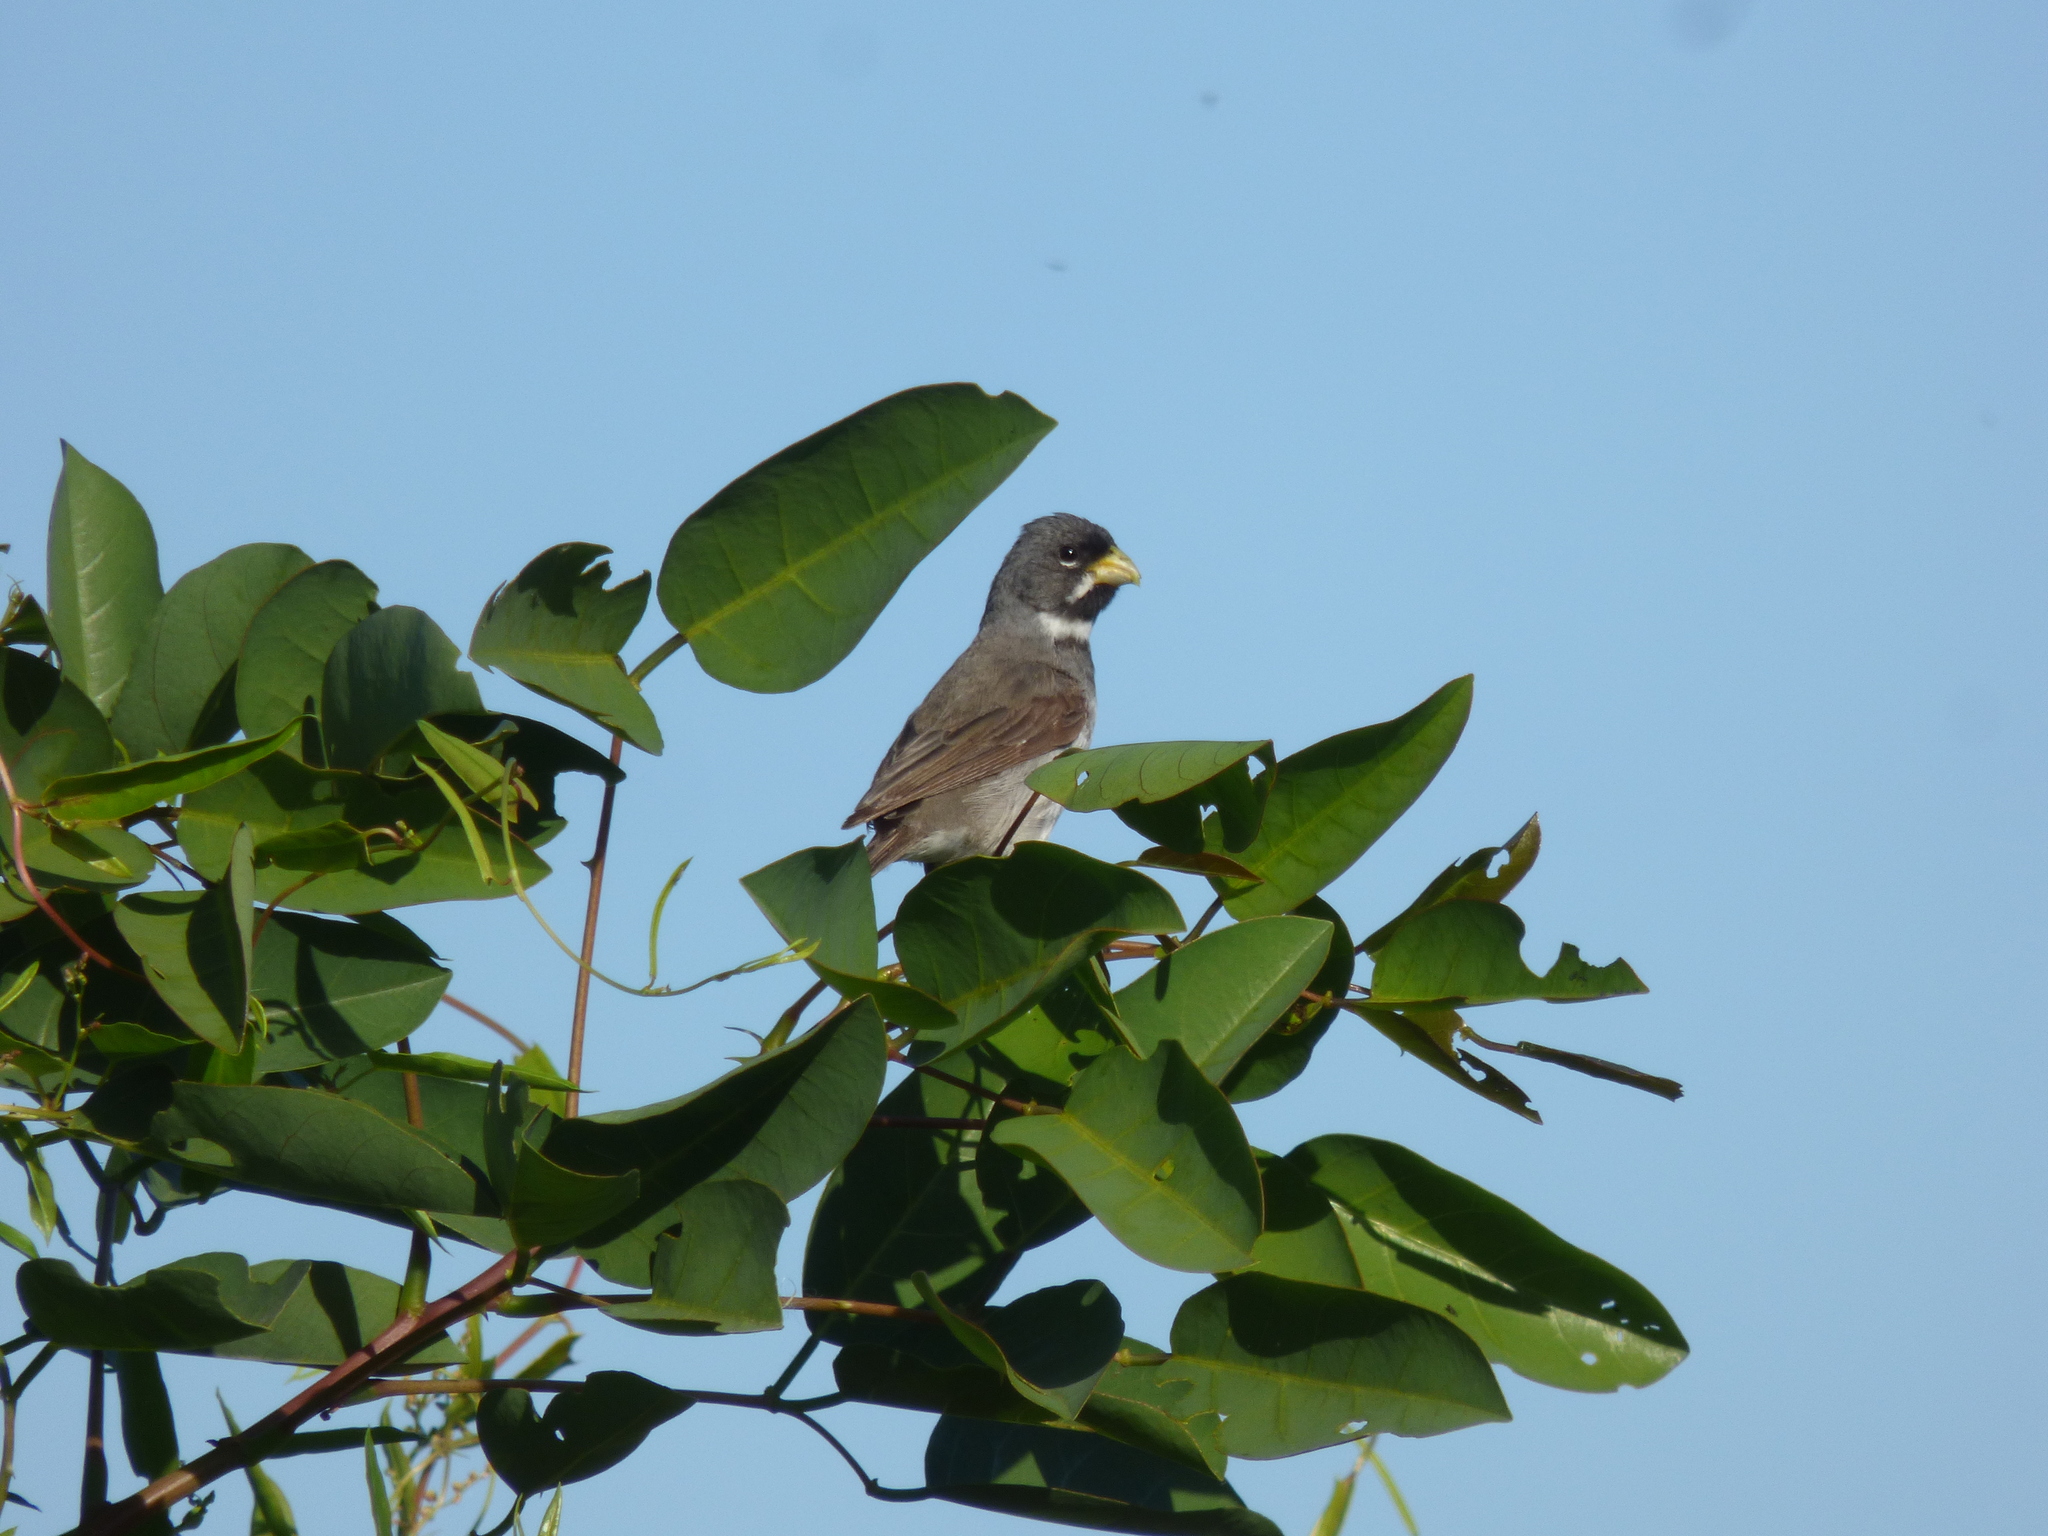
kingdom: Animalia
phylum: Chordata
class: Aves
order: Passeriformes
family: Thraupidae
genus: Sporophila
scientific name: Sporophila caerulescens
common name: Double-collared seedeater
